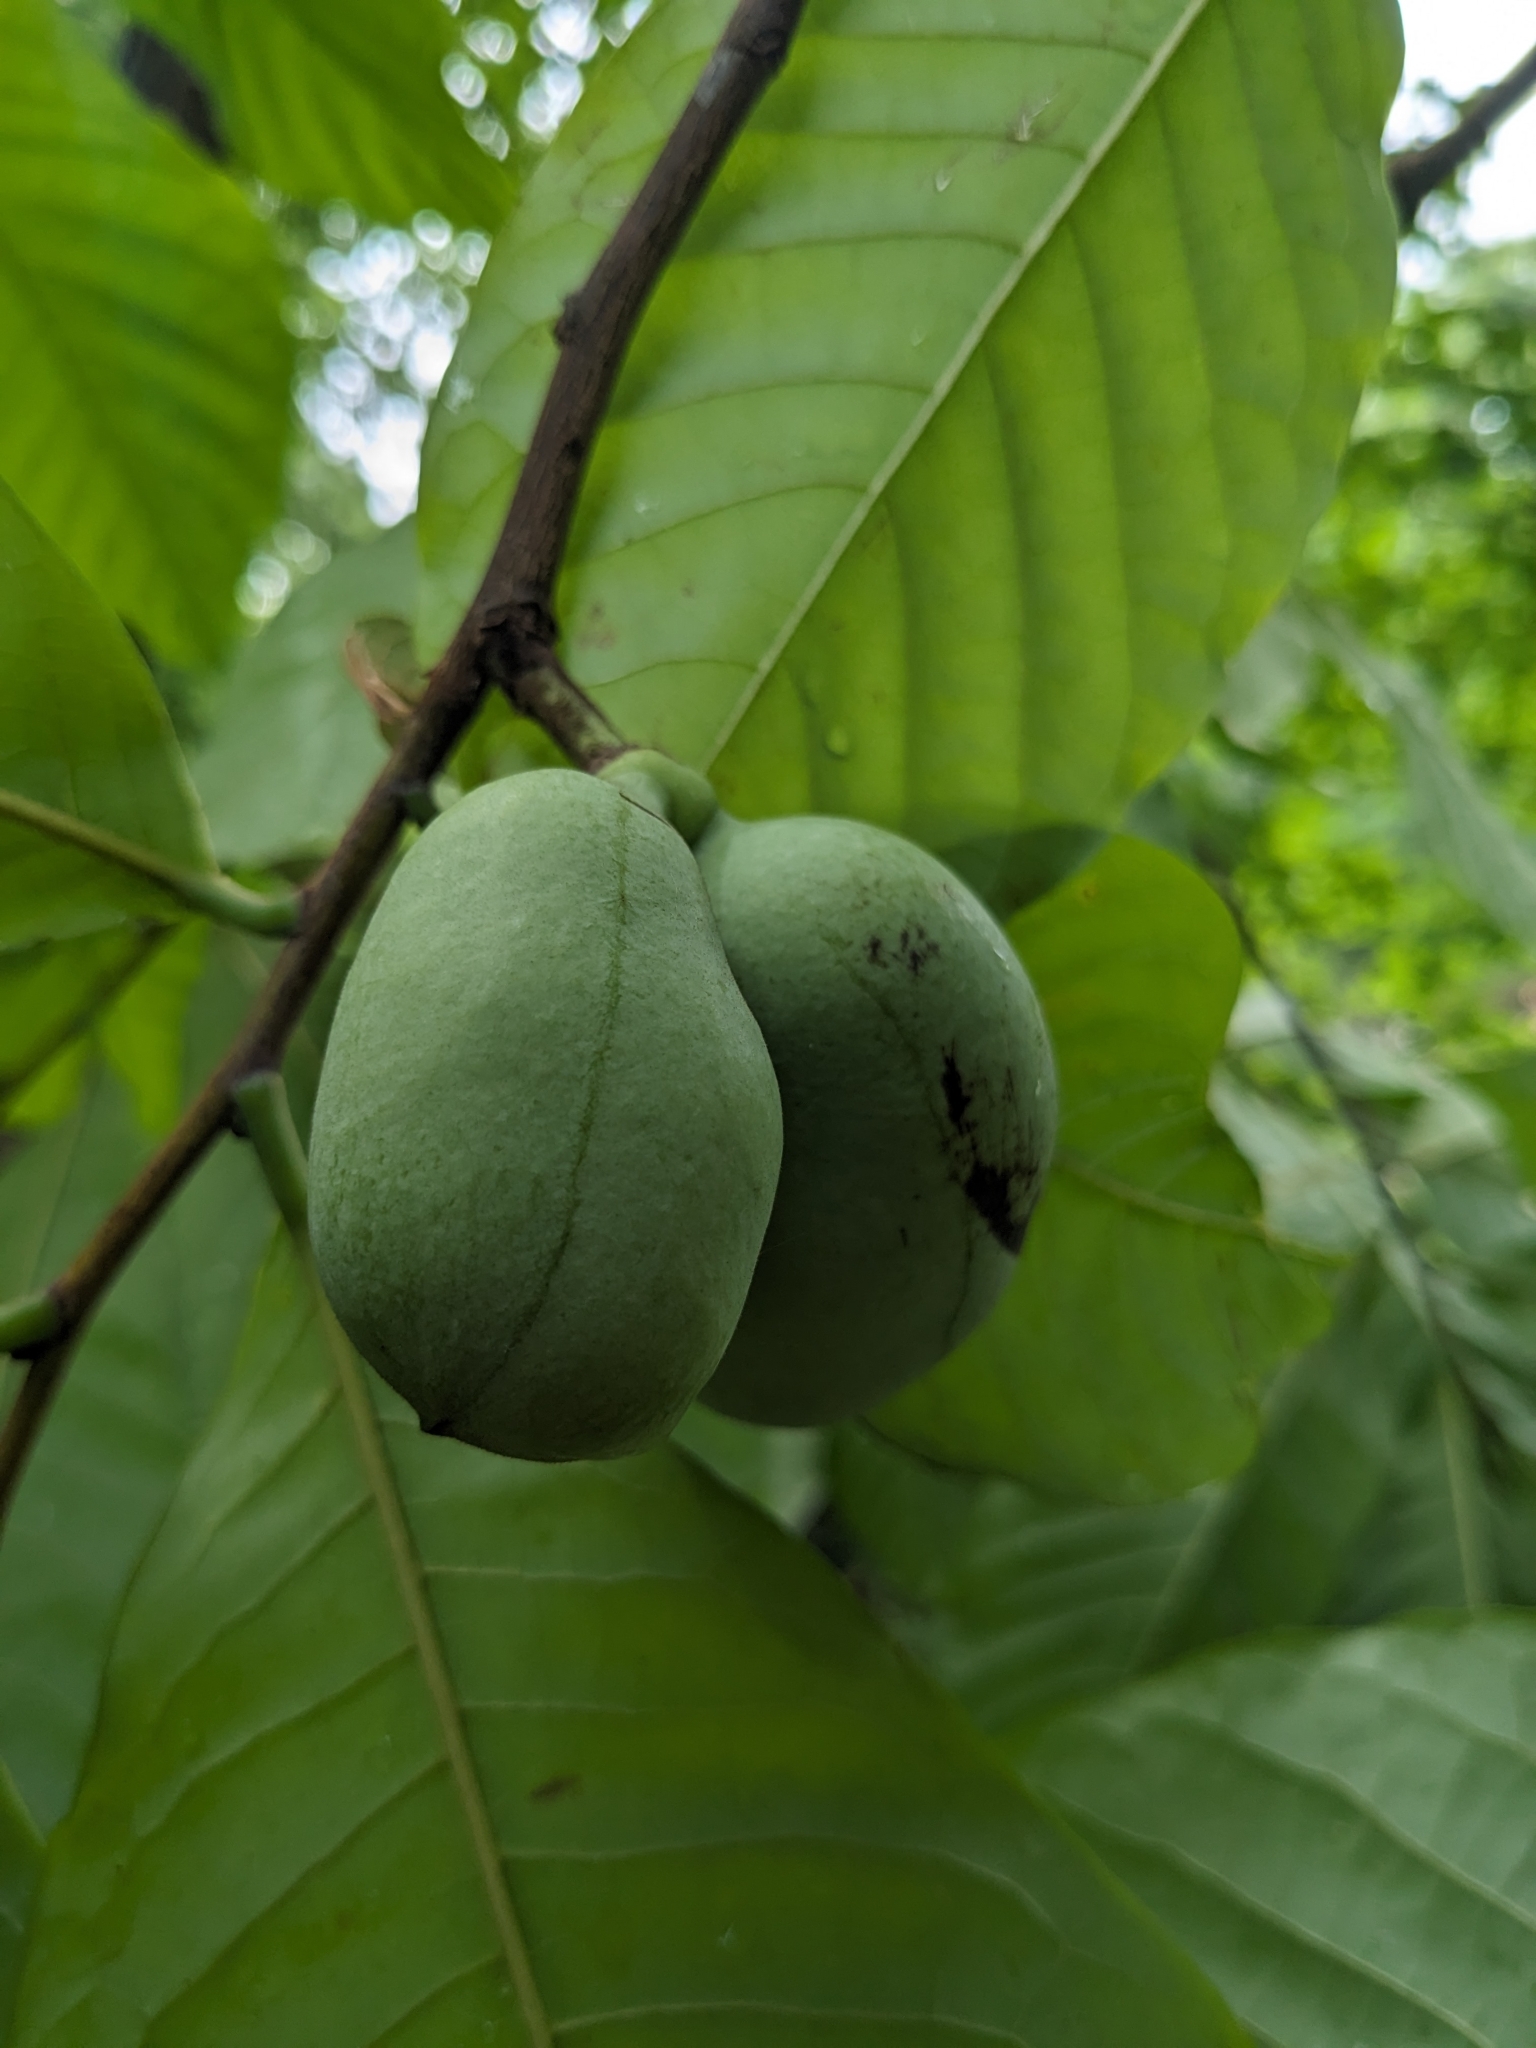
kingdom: Plantae
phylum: Tracheophyta
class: Magnoliopsida
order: Magnoliales
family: Annonaceae
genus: Asimina
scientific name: Asimina triloba
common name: Dog-banana
